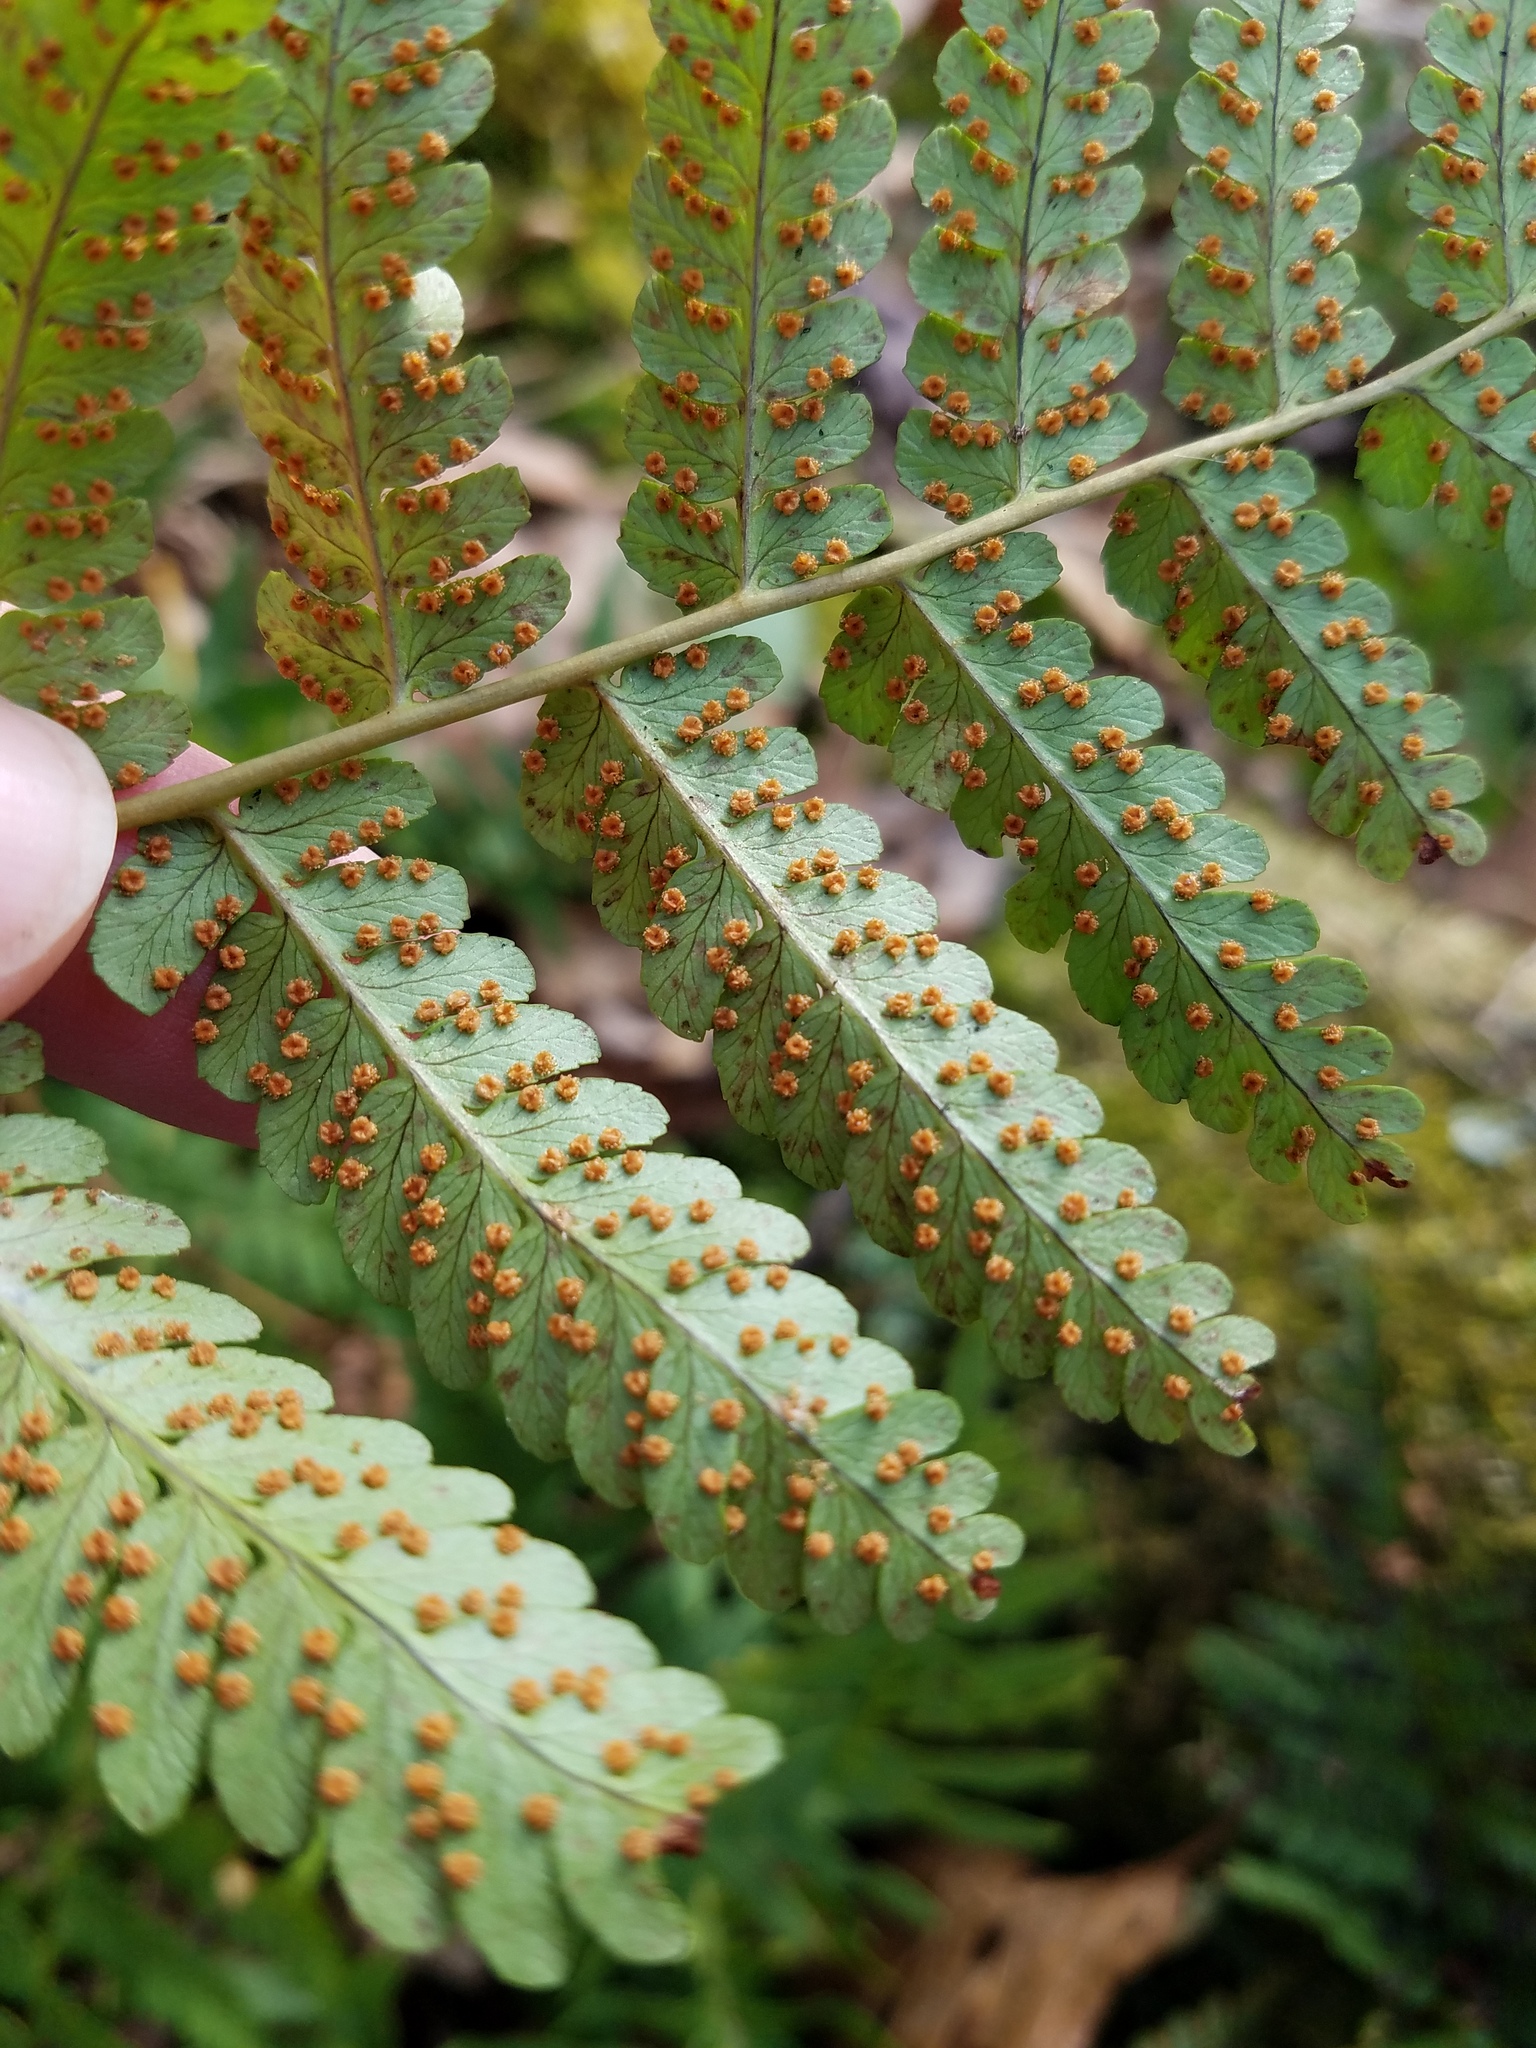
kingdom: Plantae
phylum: Tracheophyta
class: Polypodiopsida
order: Polypodiales
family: Dryopteridaceae
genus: Dryopteris
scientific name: Dryopteris marginalis
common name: Marginal wood fern
